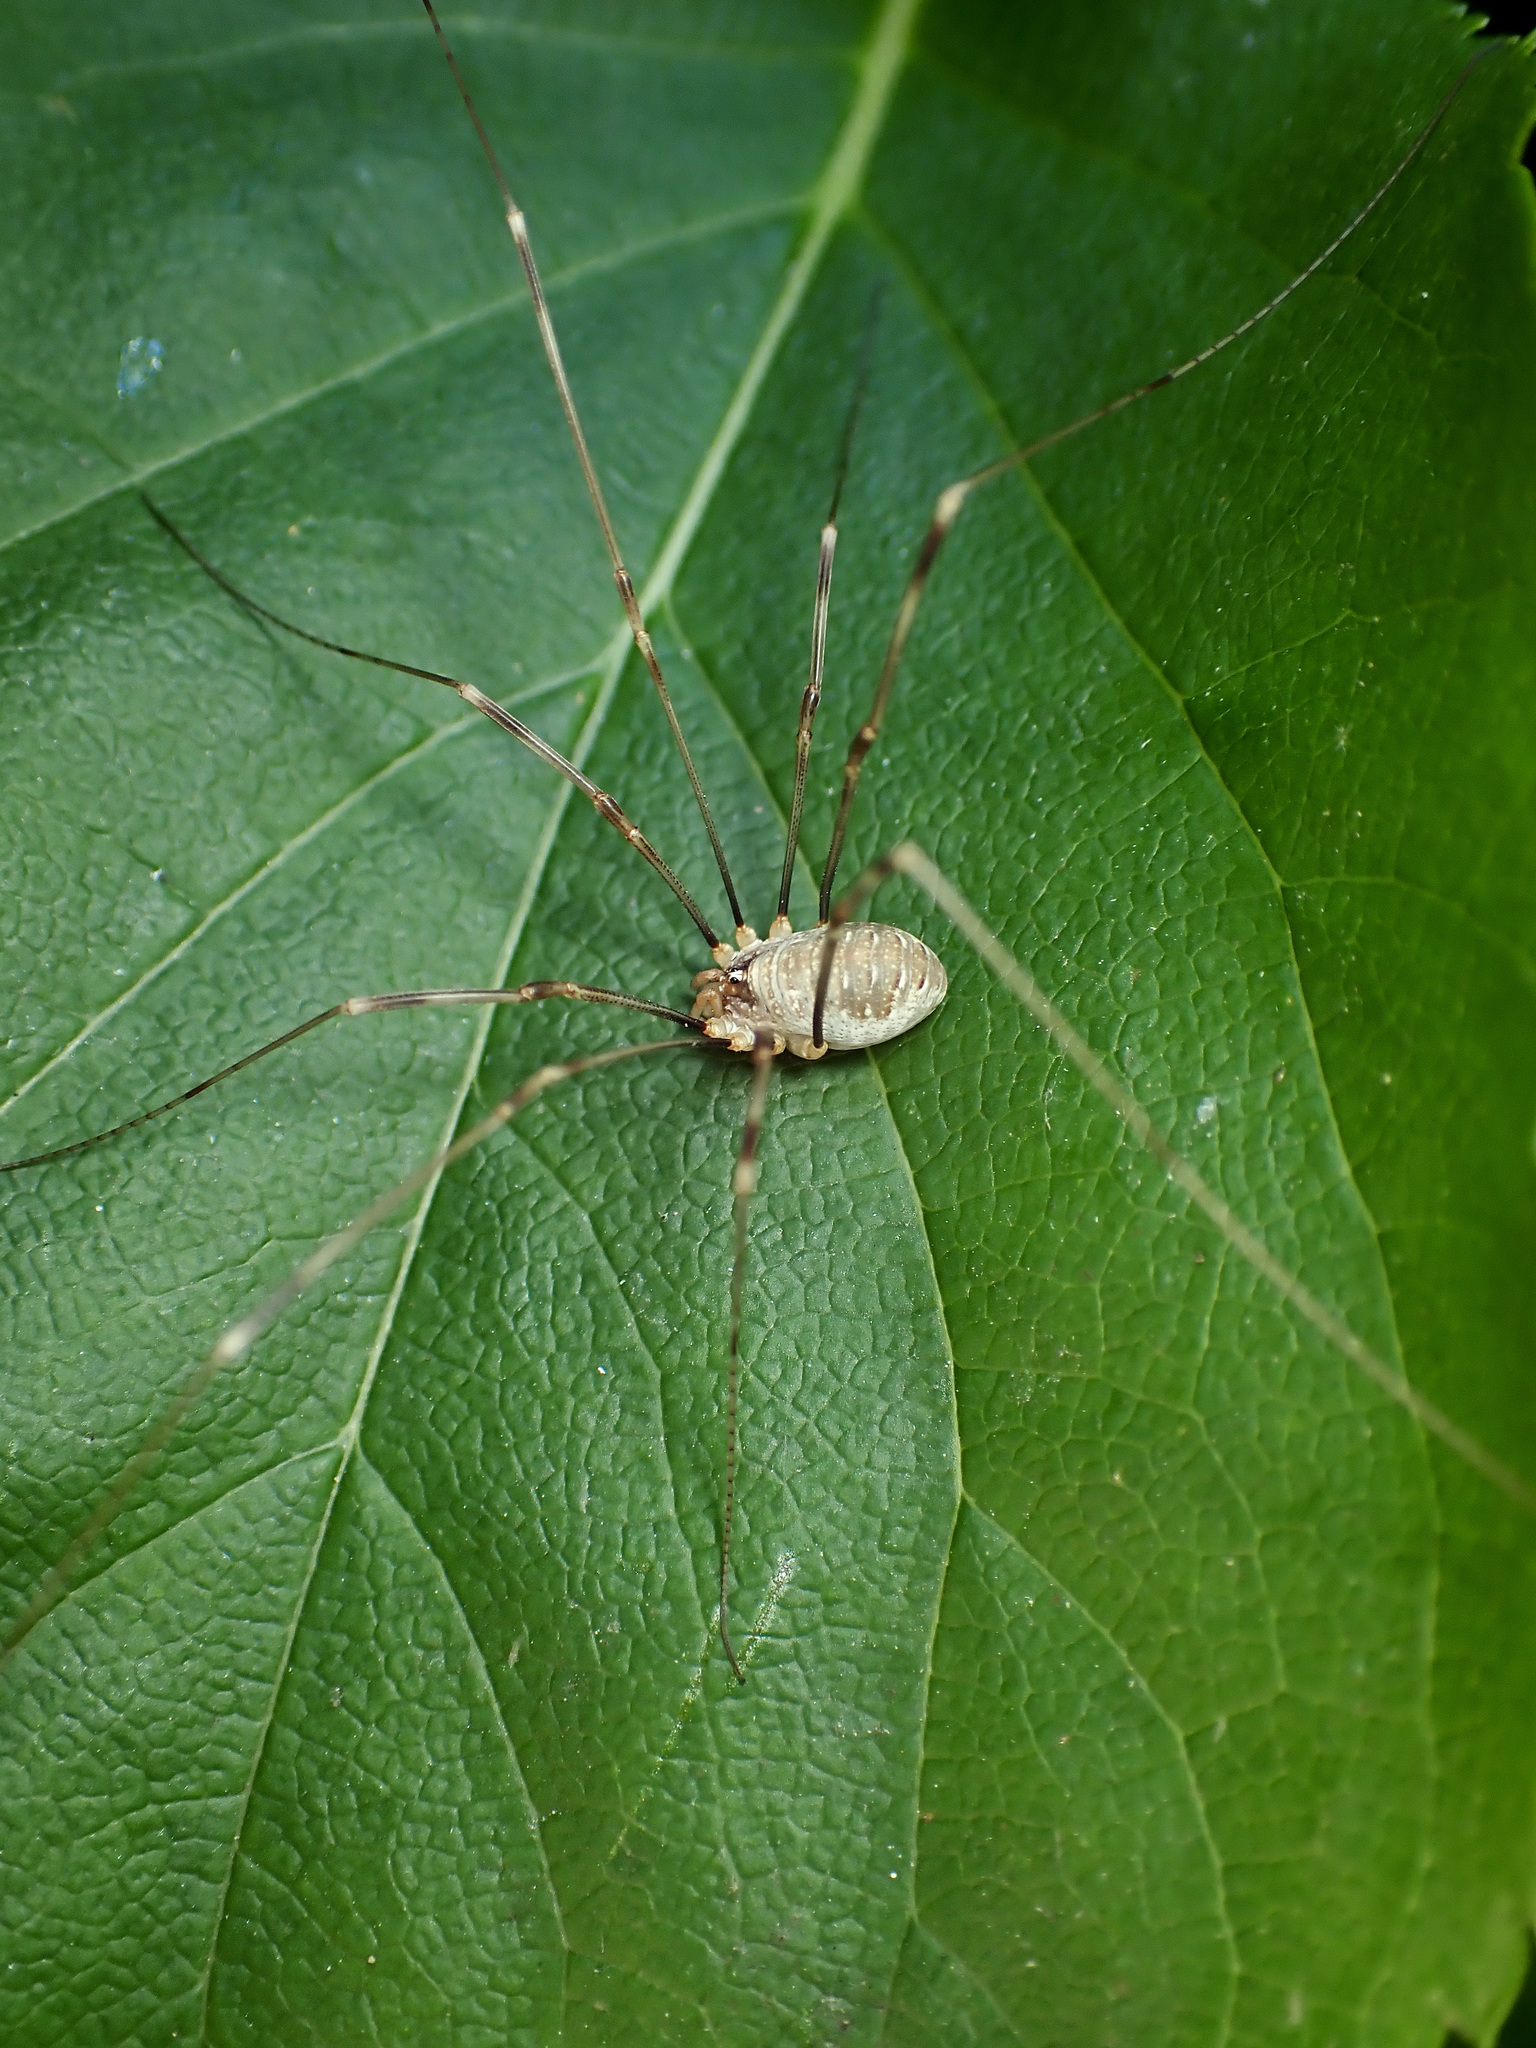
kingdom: Animalia
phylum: Arthropoda
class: Arachnida
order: Opiliones
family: Phalangiidae
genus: Opilio
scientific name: Opilio canestrinii
